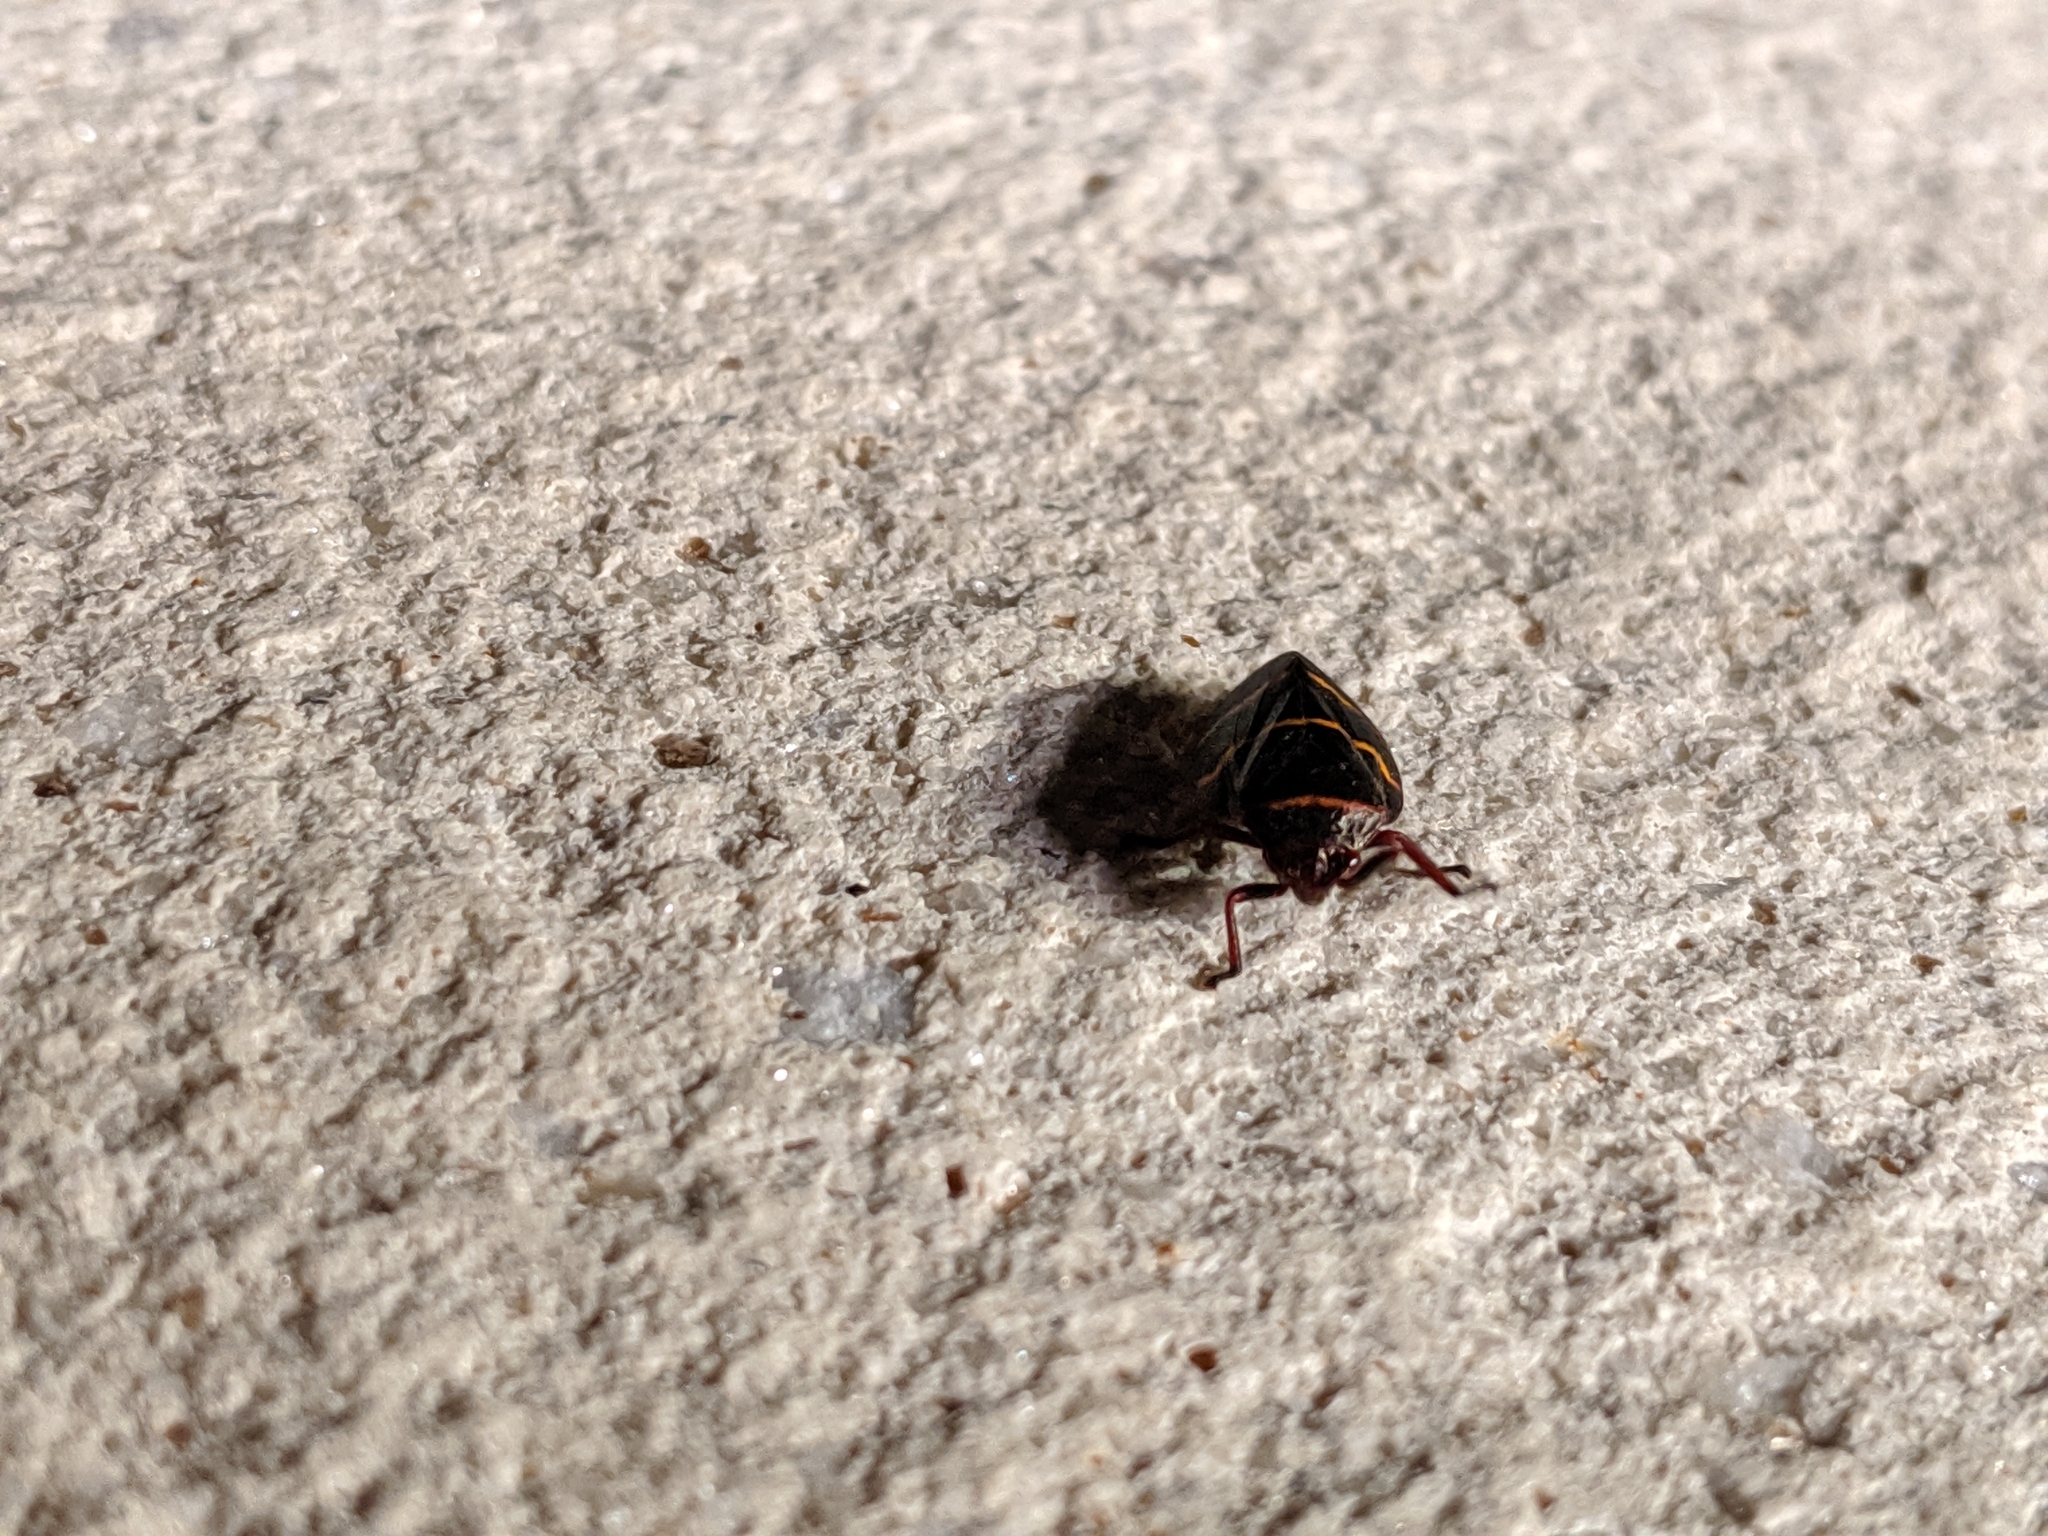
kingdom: Animalia
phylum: Arthropoda
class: Insecta
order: Hemiptera
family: Cercopidae
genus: Prosapia
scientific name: Prosapia bicincta
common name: Twolined spittlebug
